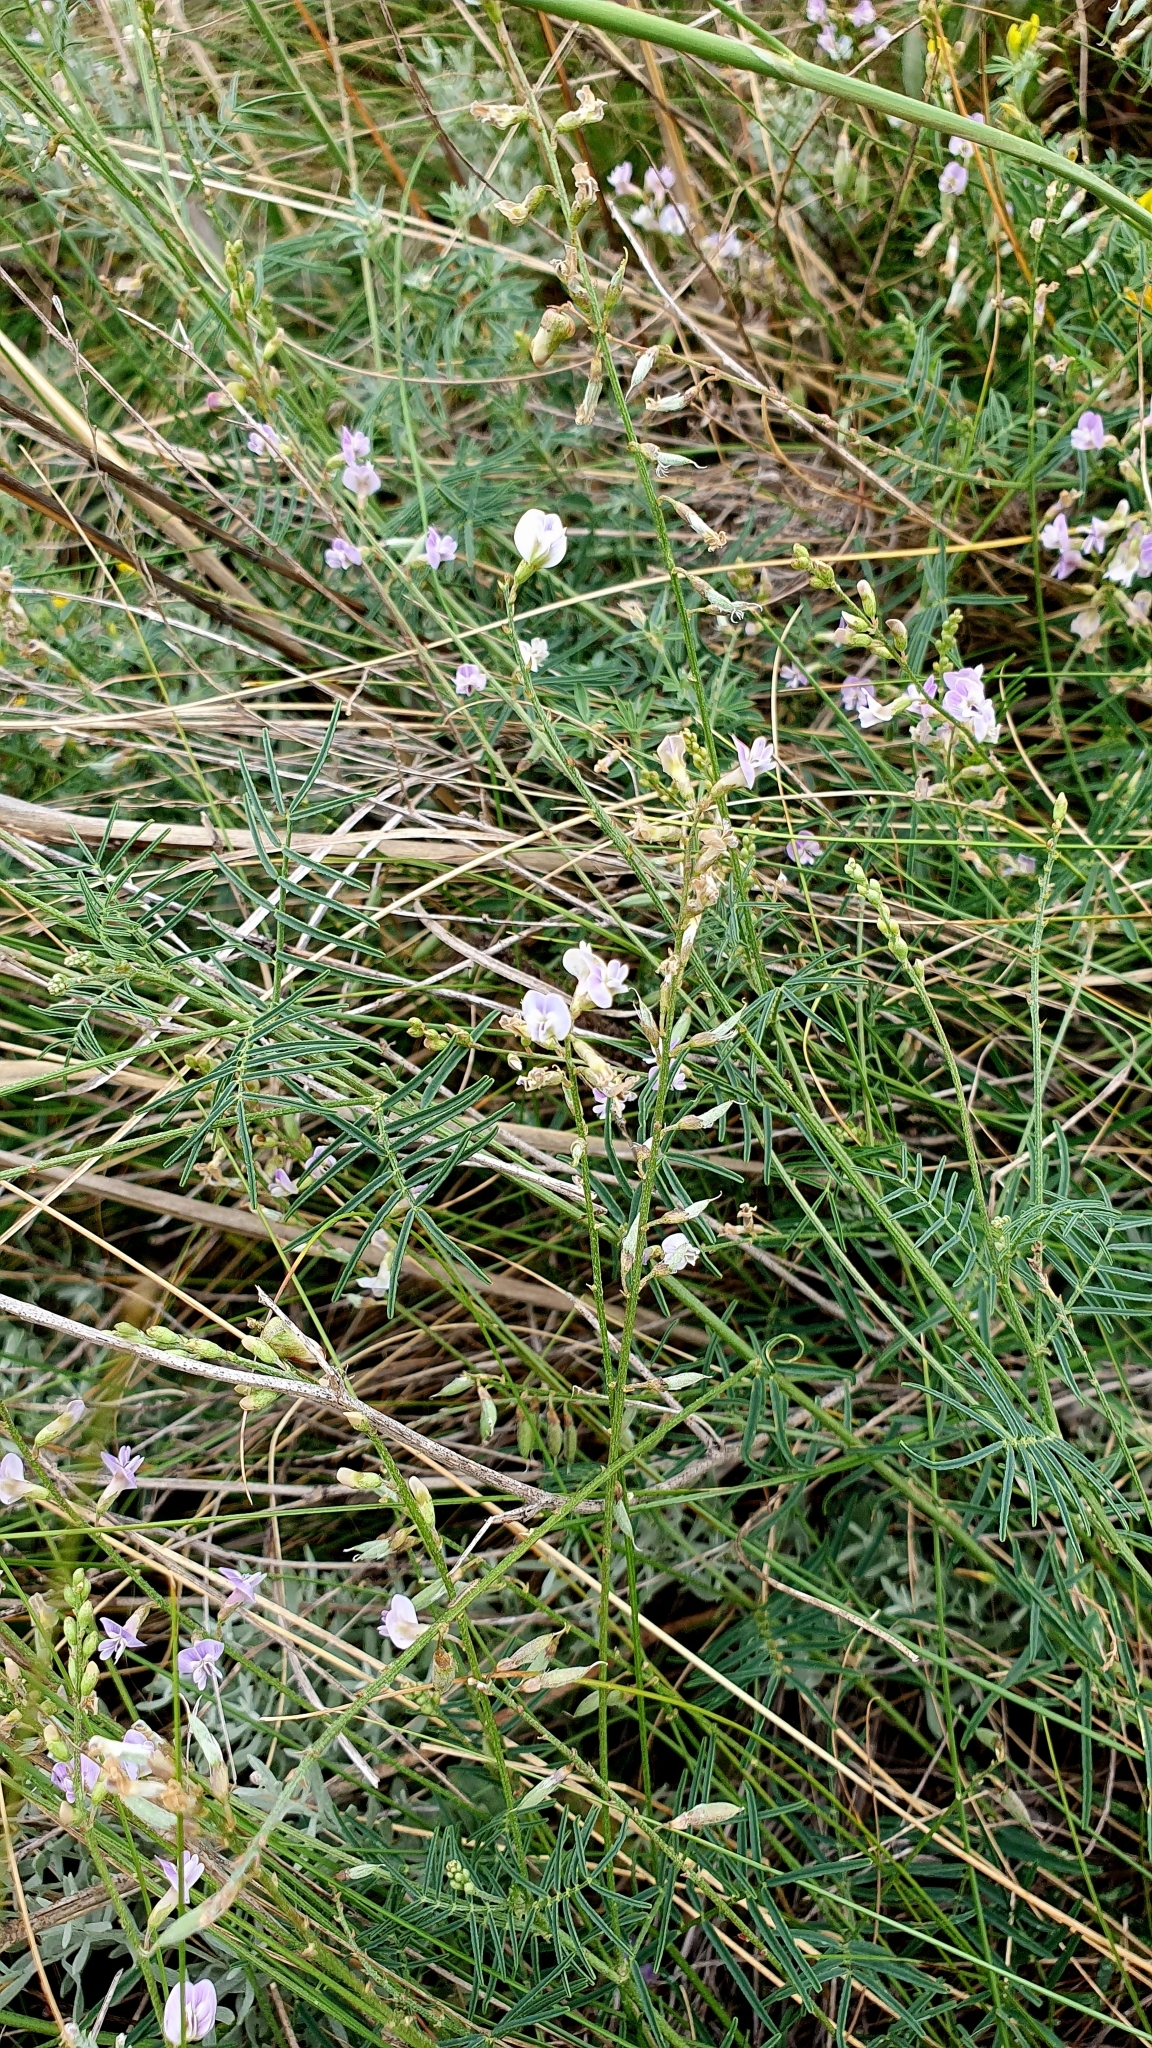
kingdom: Plantae
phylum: Tracheophyta
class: Magnoliopsida
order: Fabales
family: Fabaceae
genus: Astragalus
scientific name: Astragalus austriacus
